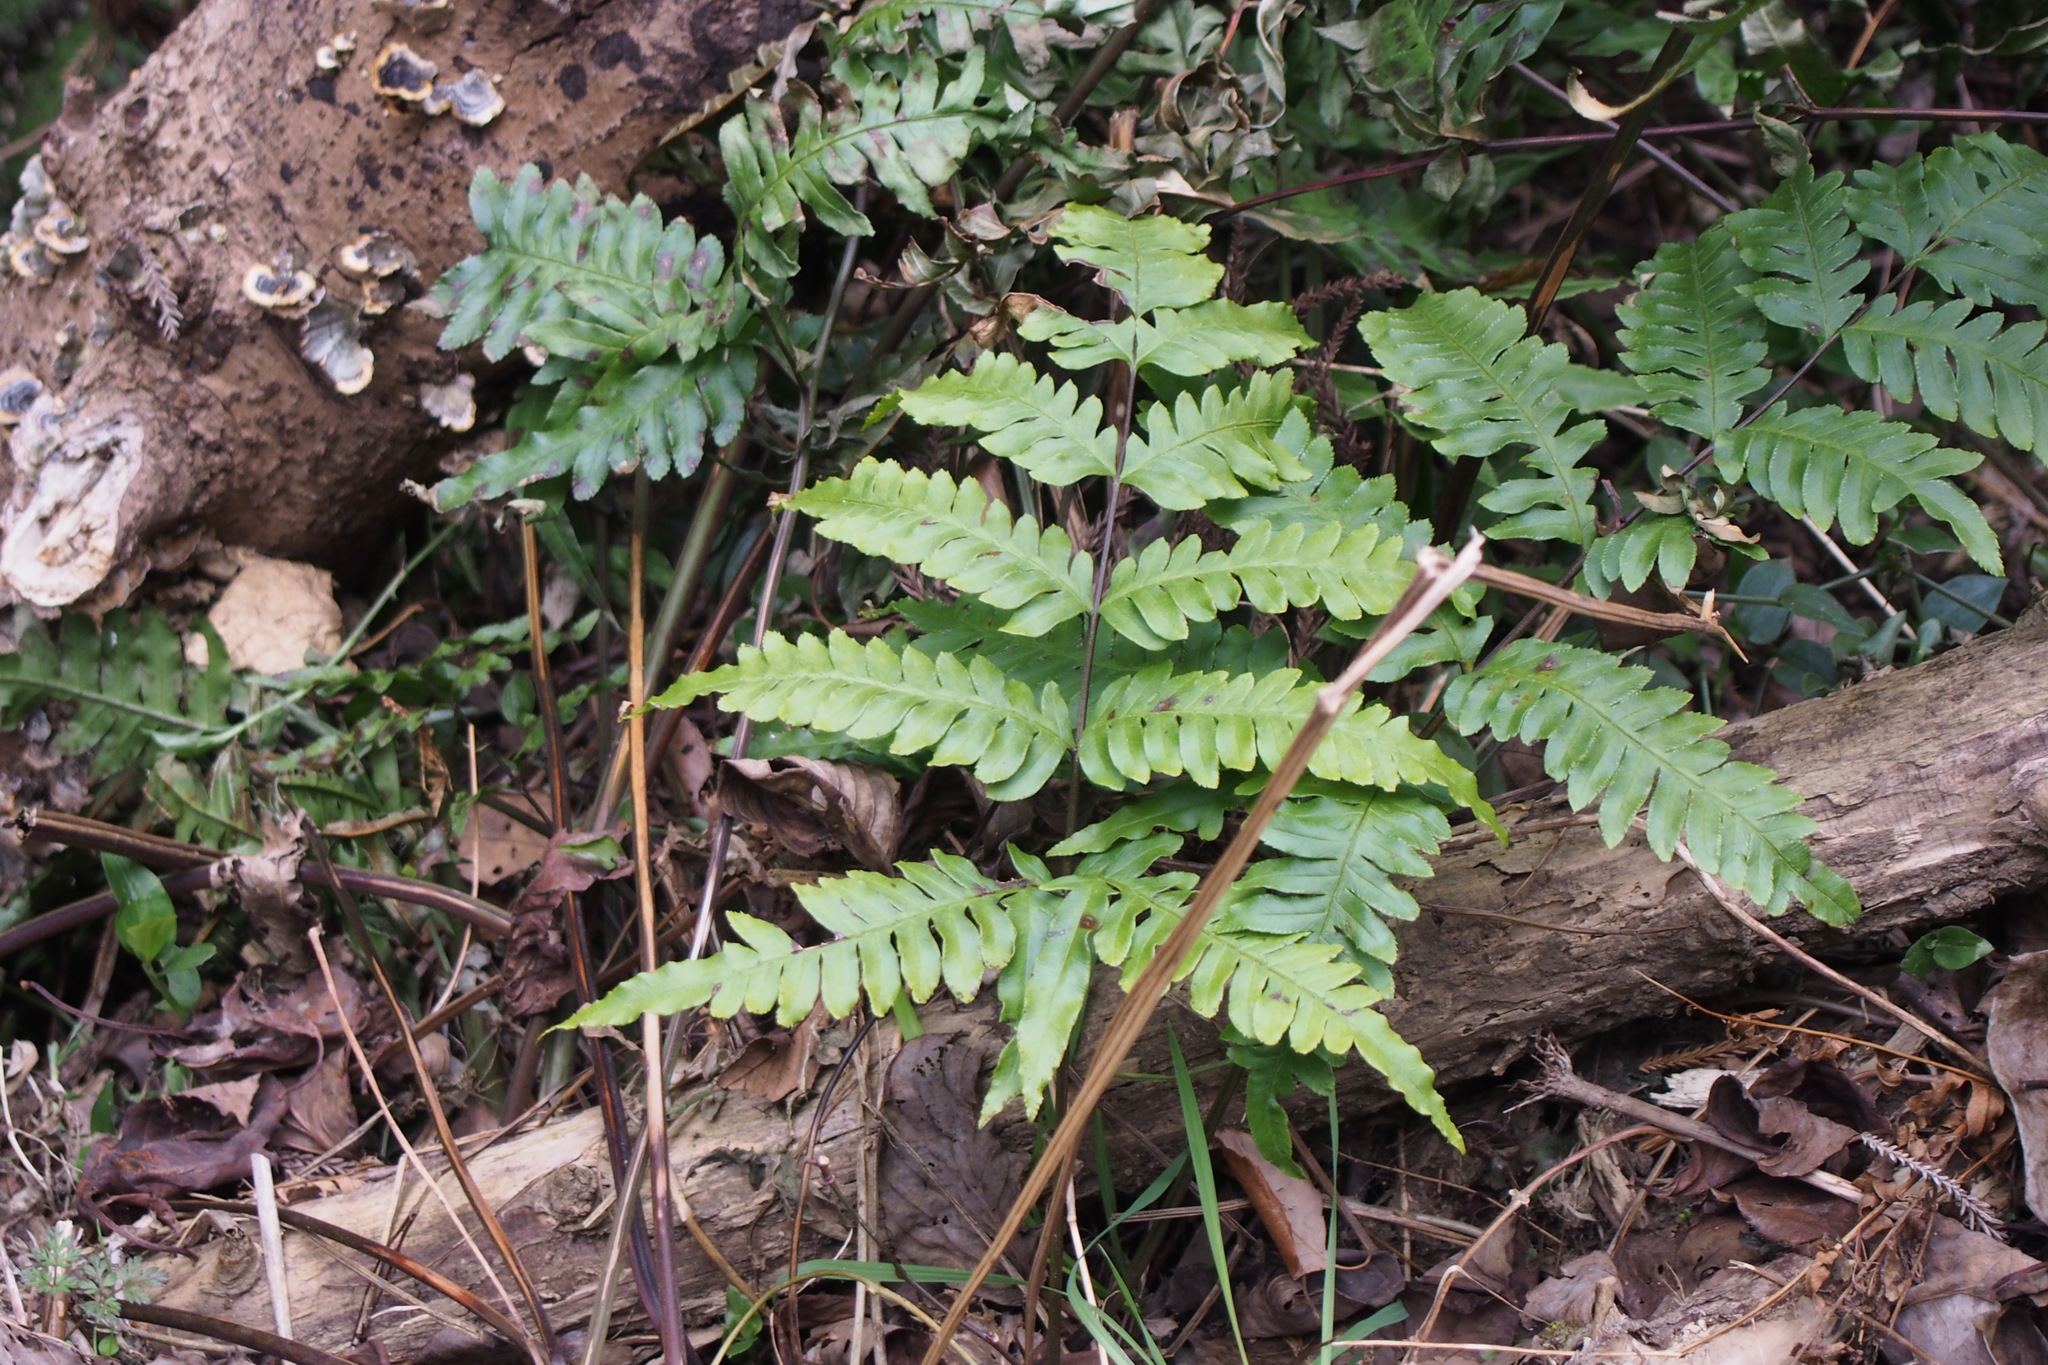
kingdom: Plantae
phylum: Tracheophyta
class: Polypodiopsida
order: Polypodiales
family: Pteridaceae
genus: Pteris
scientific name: Pteris terminalis
